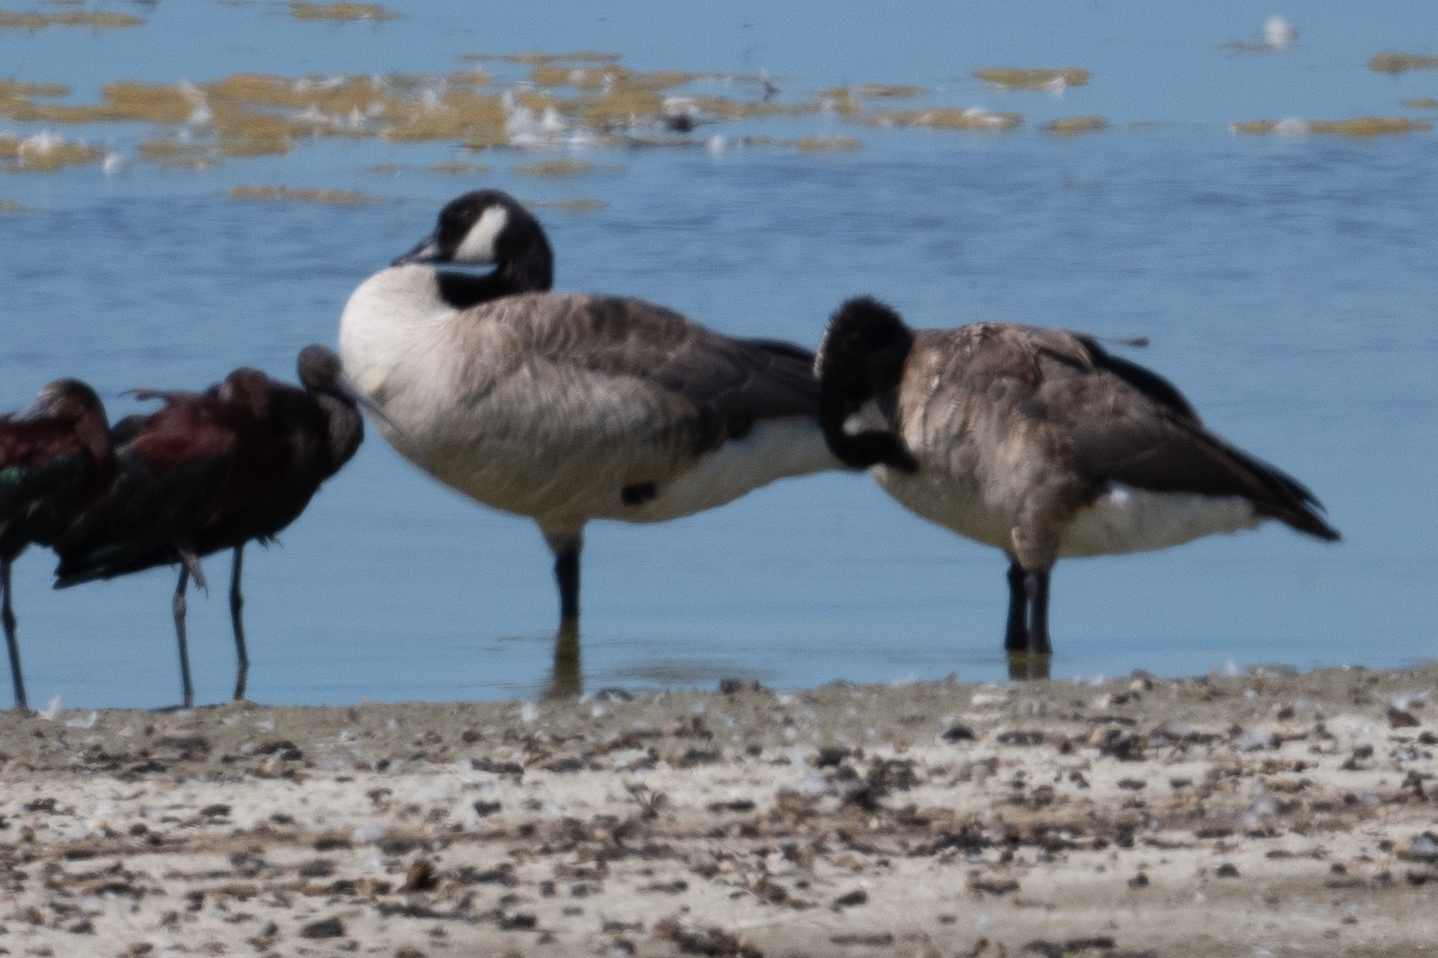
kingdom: Animalia
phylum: Chordata
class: Aves
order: Anseriformes
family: Anatidae
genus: Branta
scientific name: Branta canadensis
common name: Canada goose
